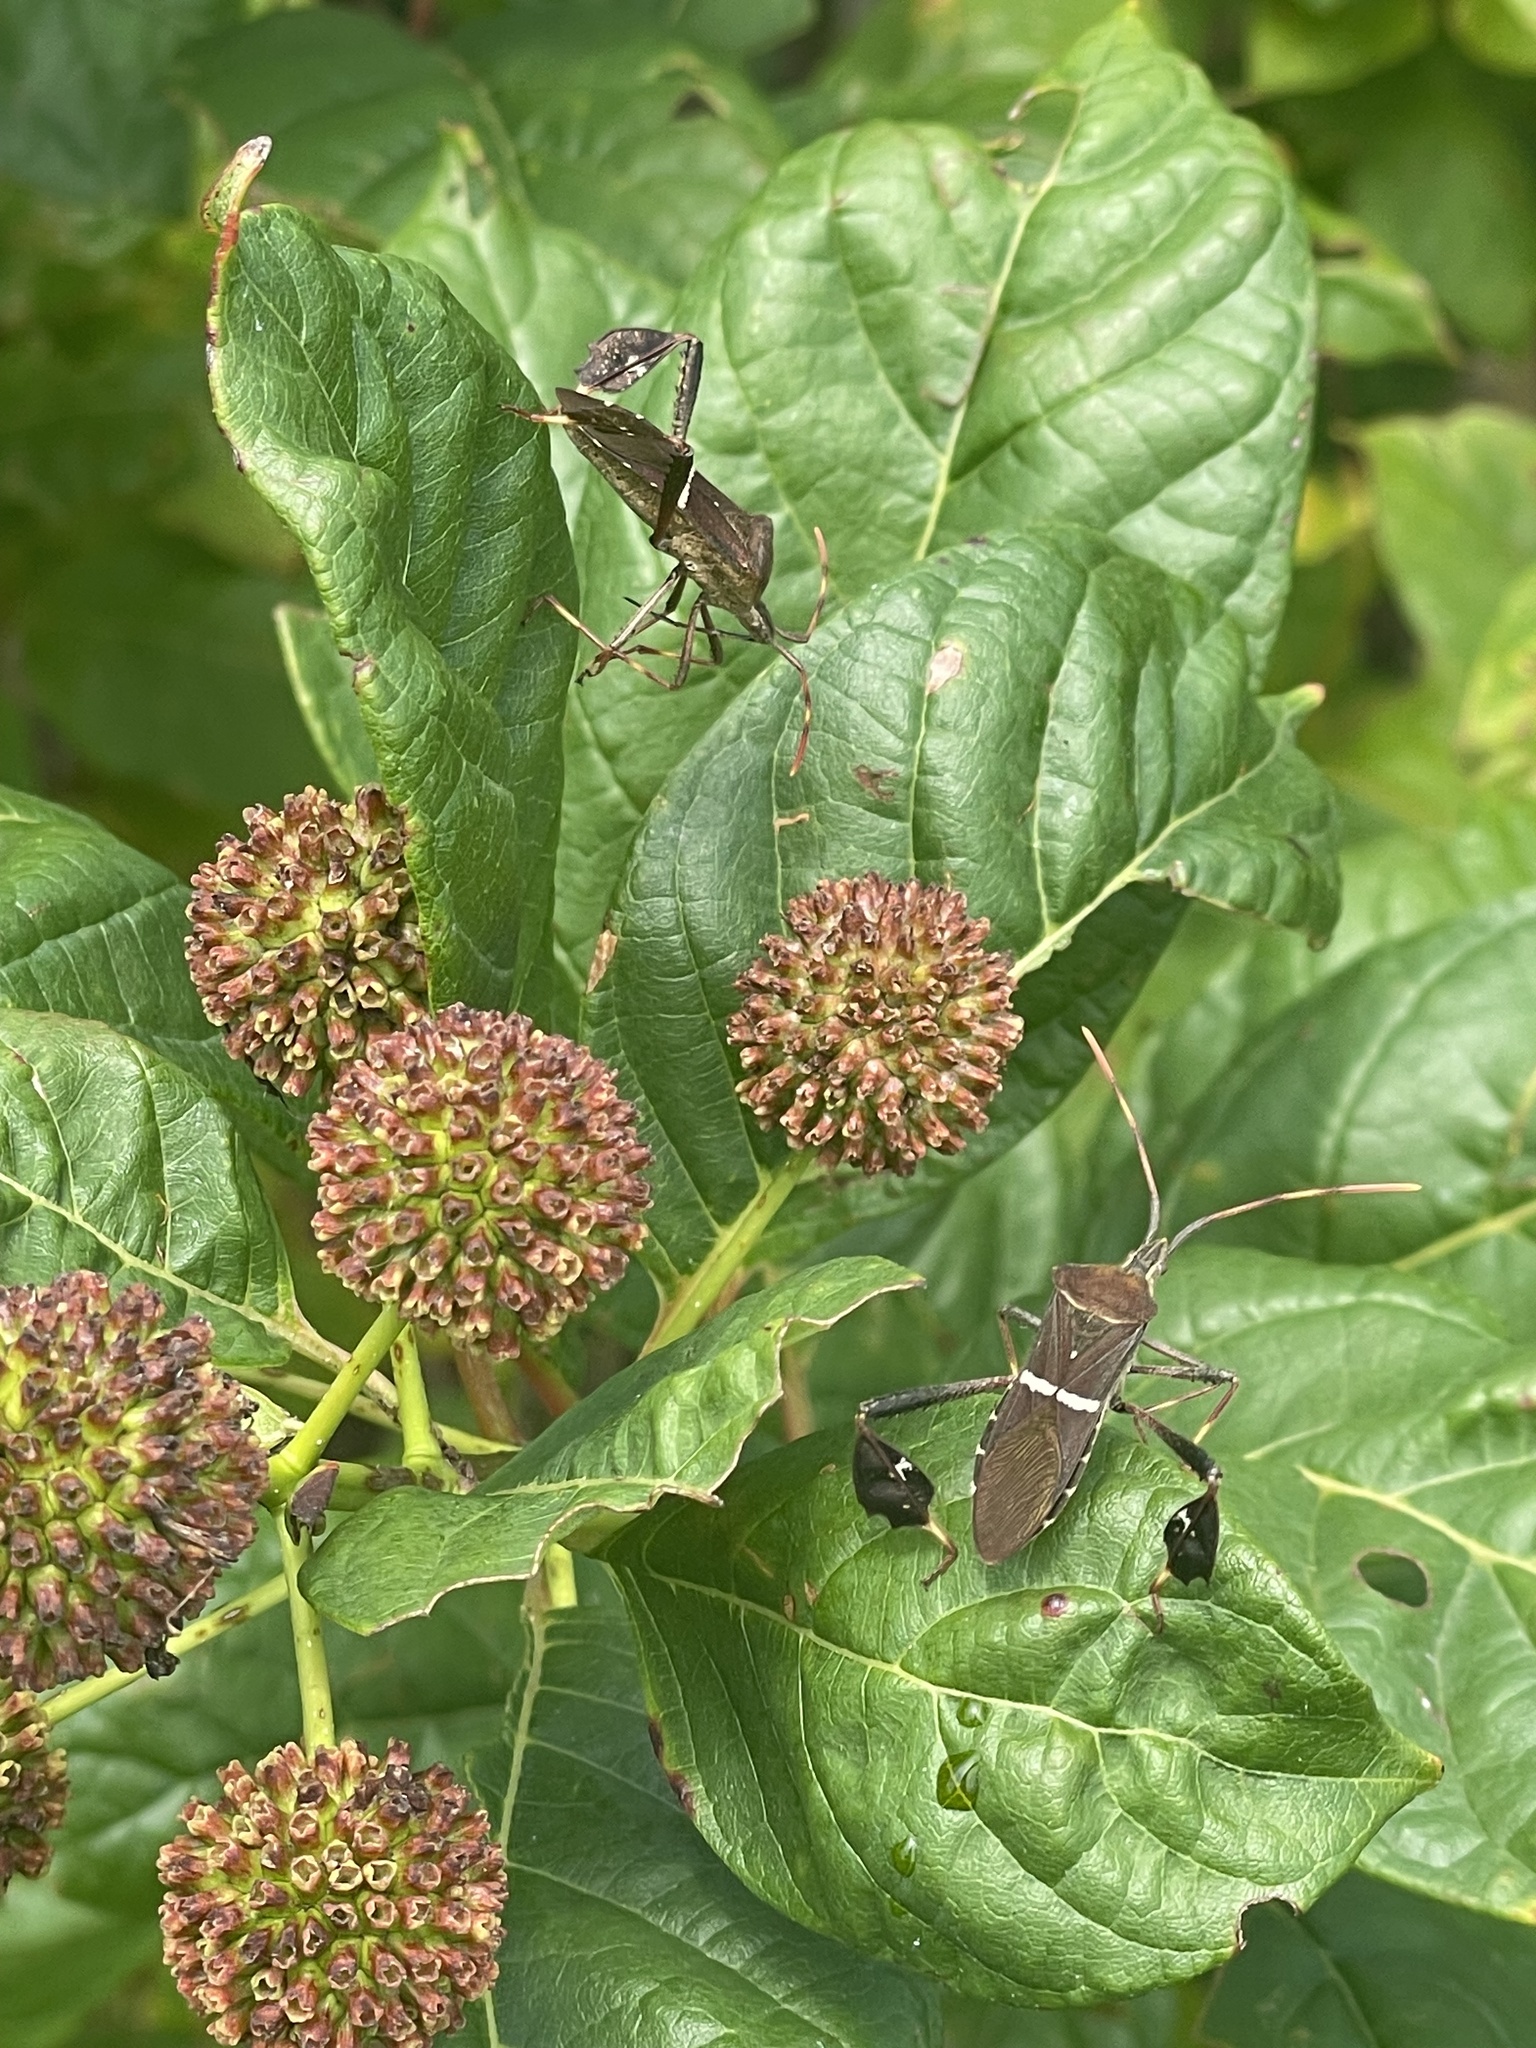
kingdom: Animalia
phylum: Arthropoda
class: Insecta
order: Hemiptera
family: Coreidae
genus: Leptoglossus
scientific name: Leptoglossus phyllopus
